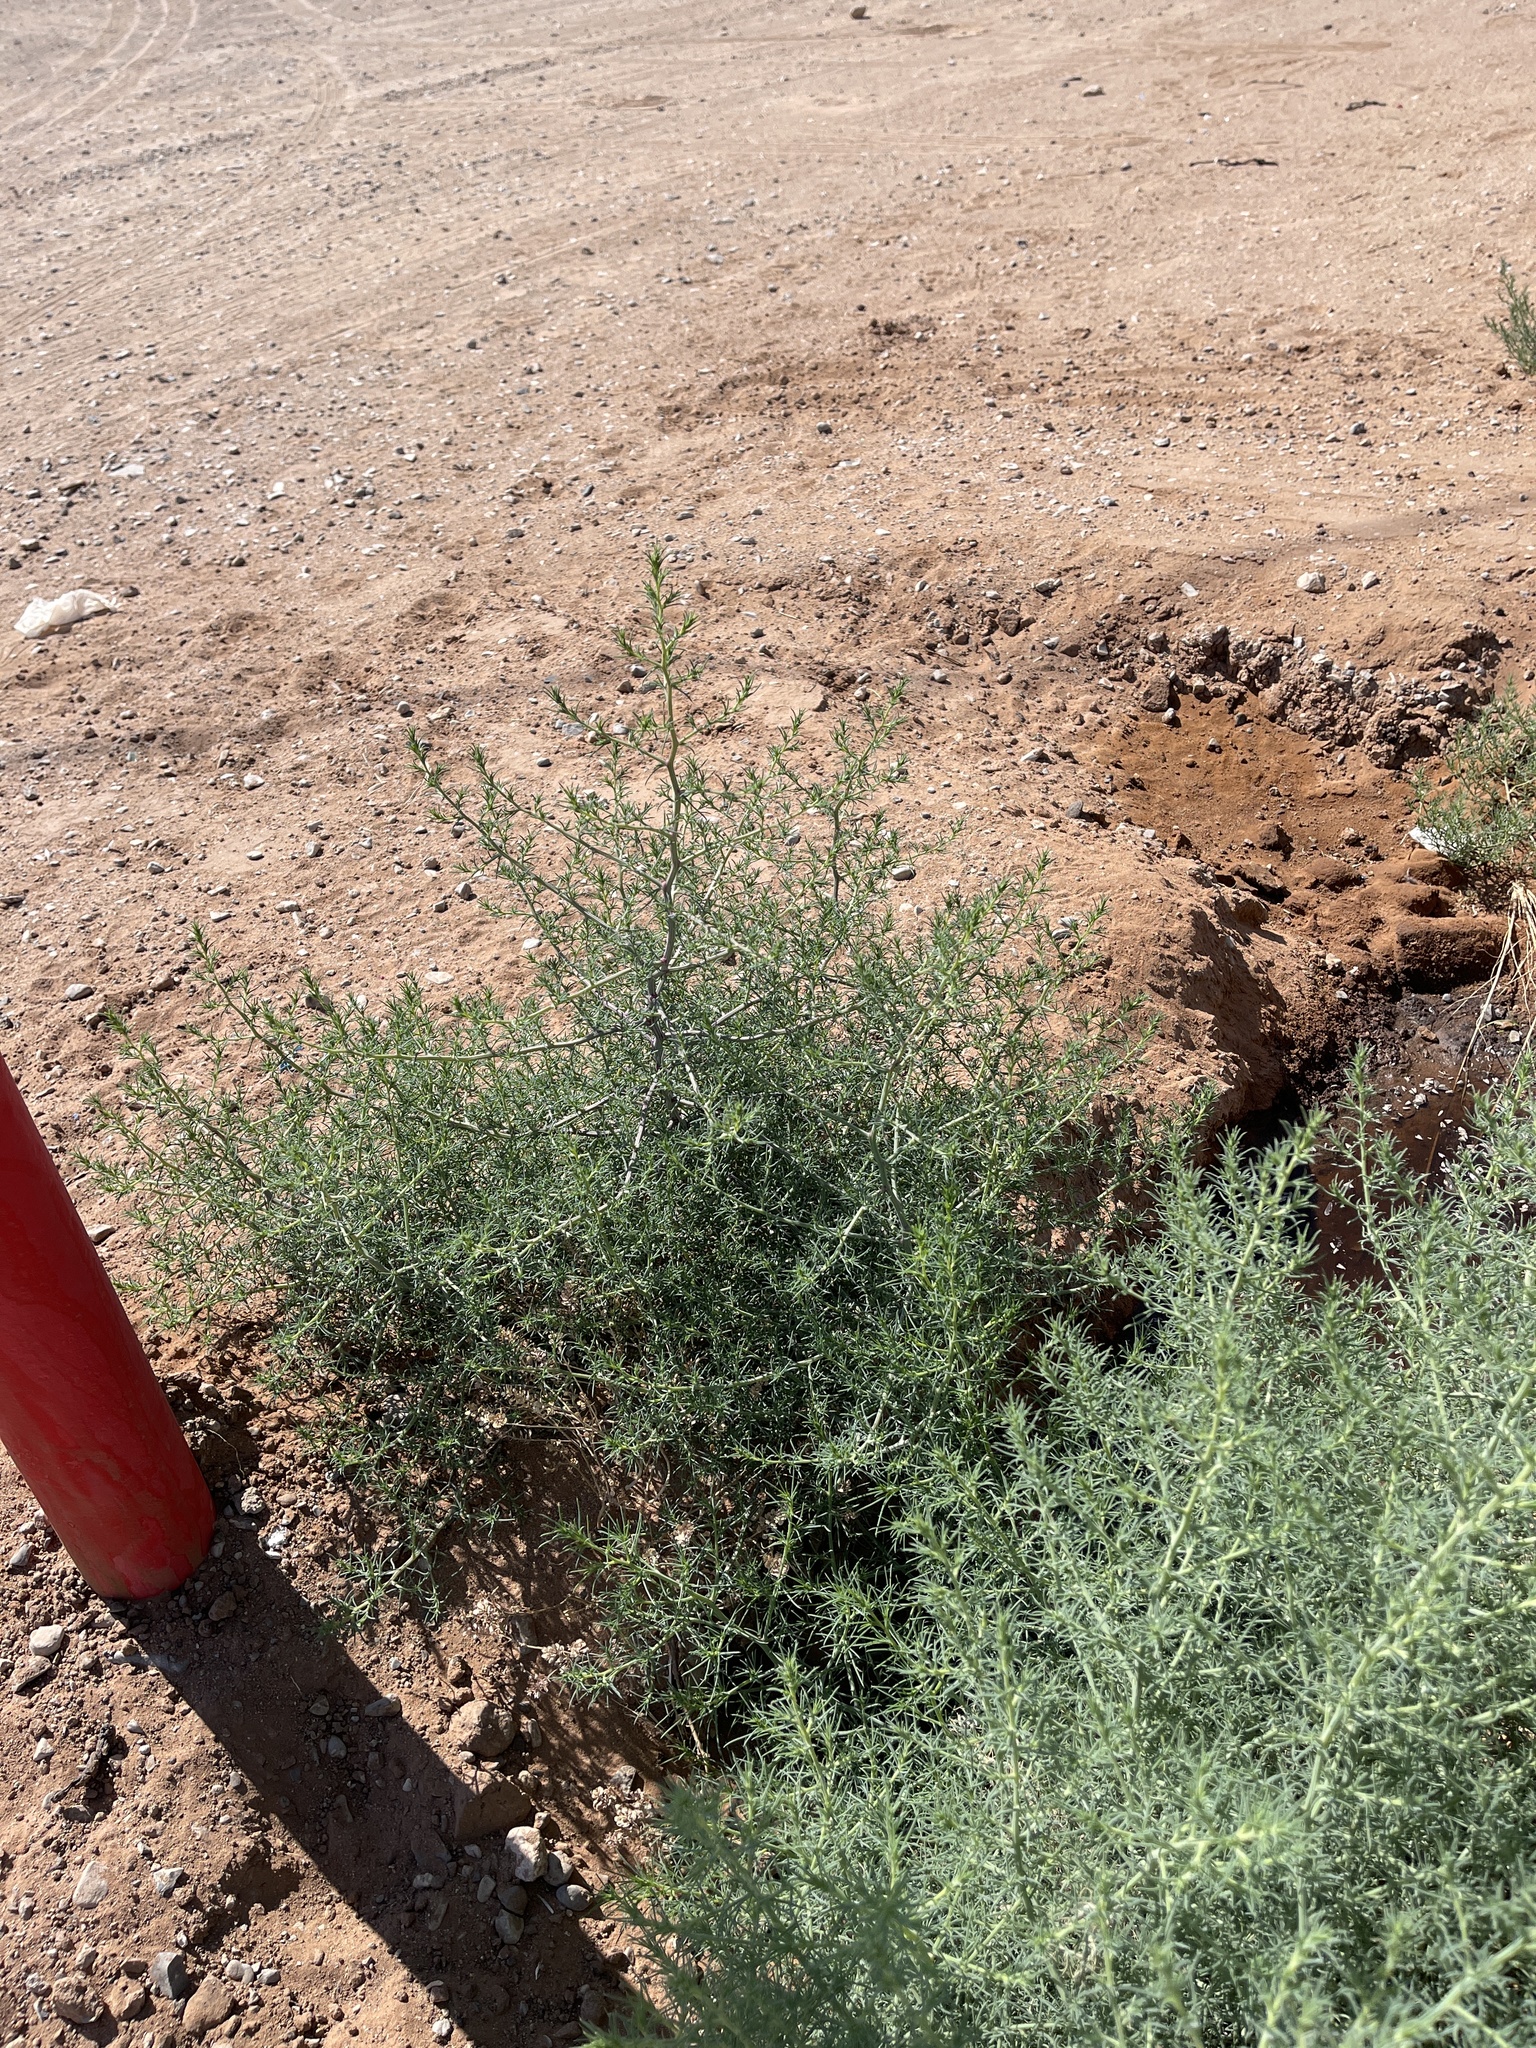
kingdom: Plantae
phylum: Tracheophyta
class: Magnoliopsida
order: Caryophyllales
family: Amaranthaceae
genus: Salsola
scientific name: Salsola tragus
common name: Prickly russian thistle
